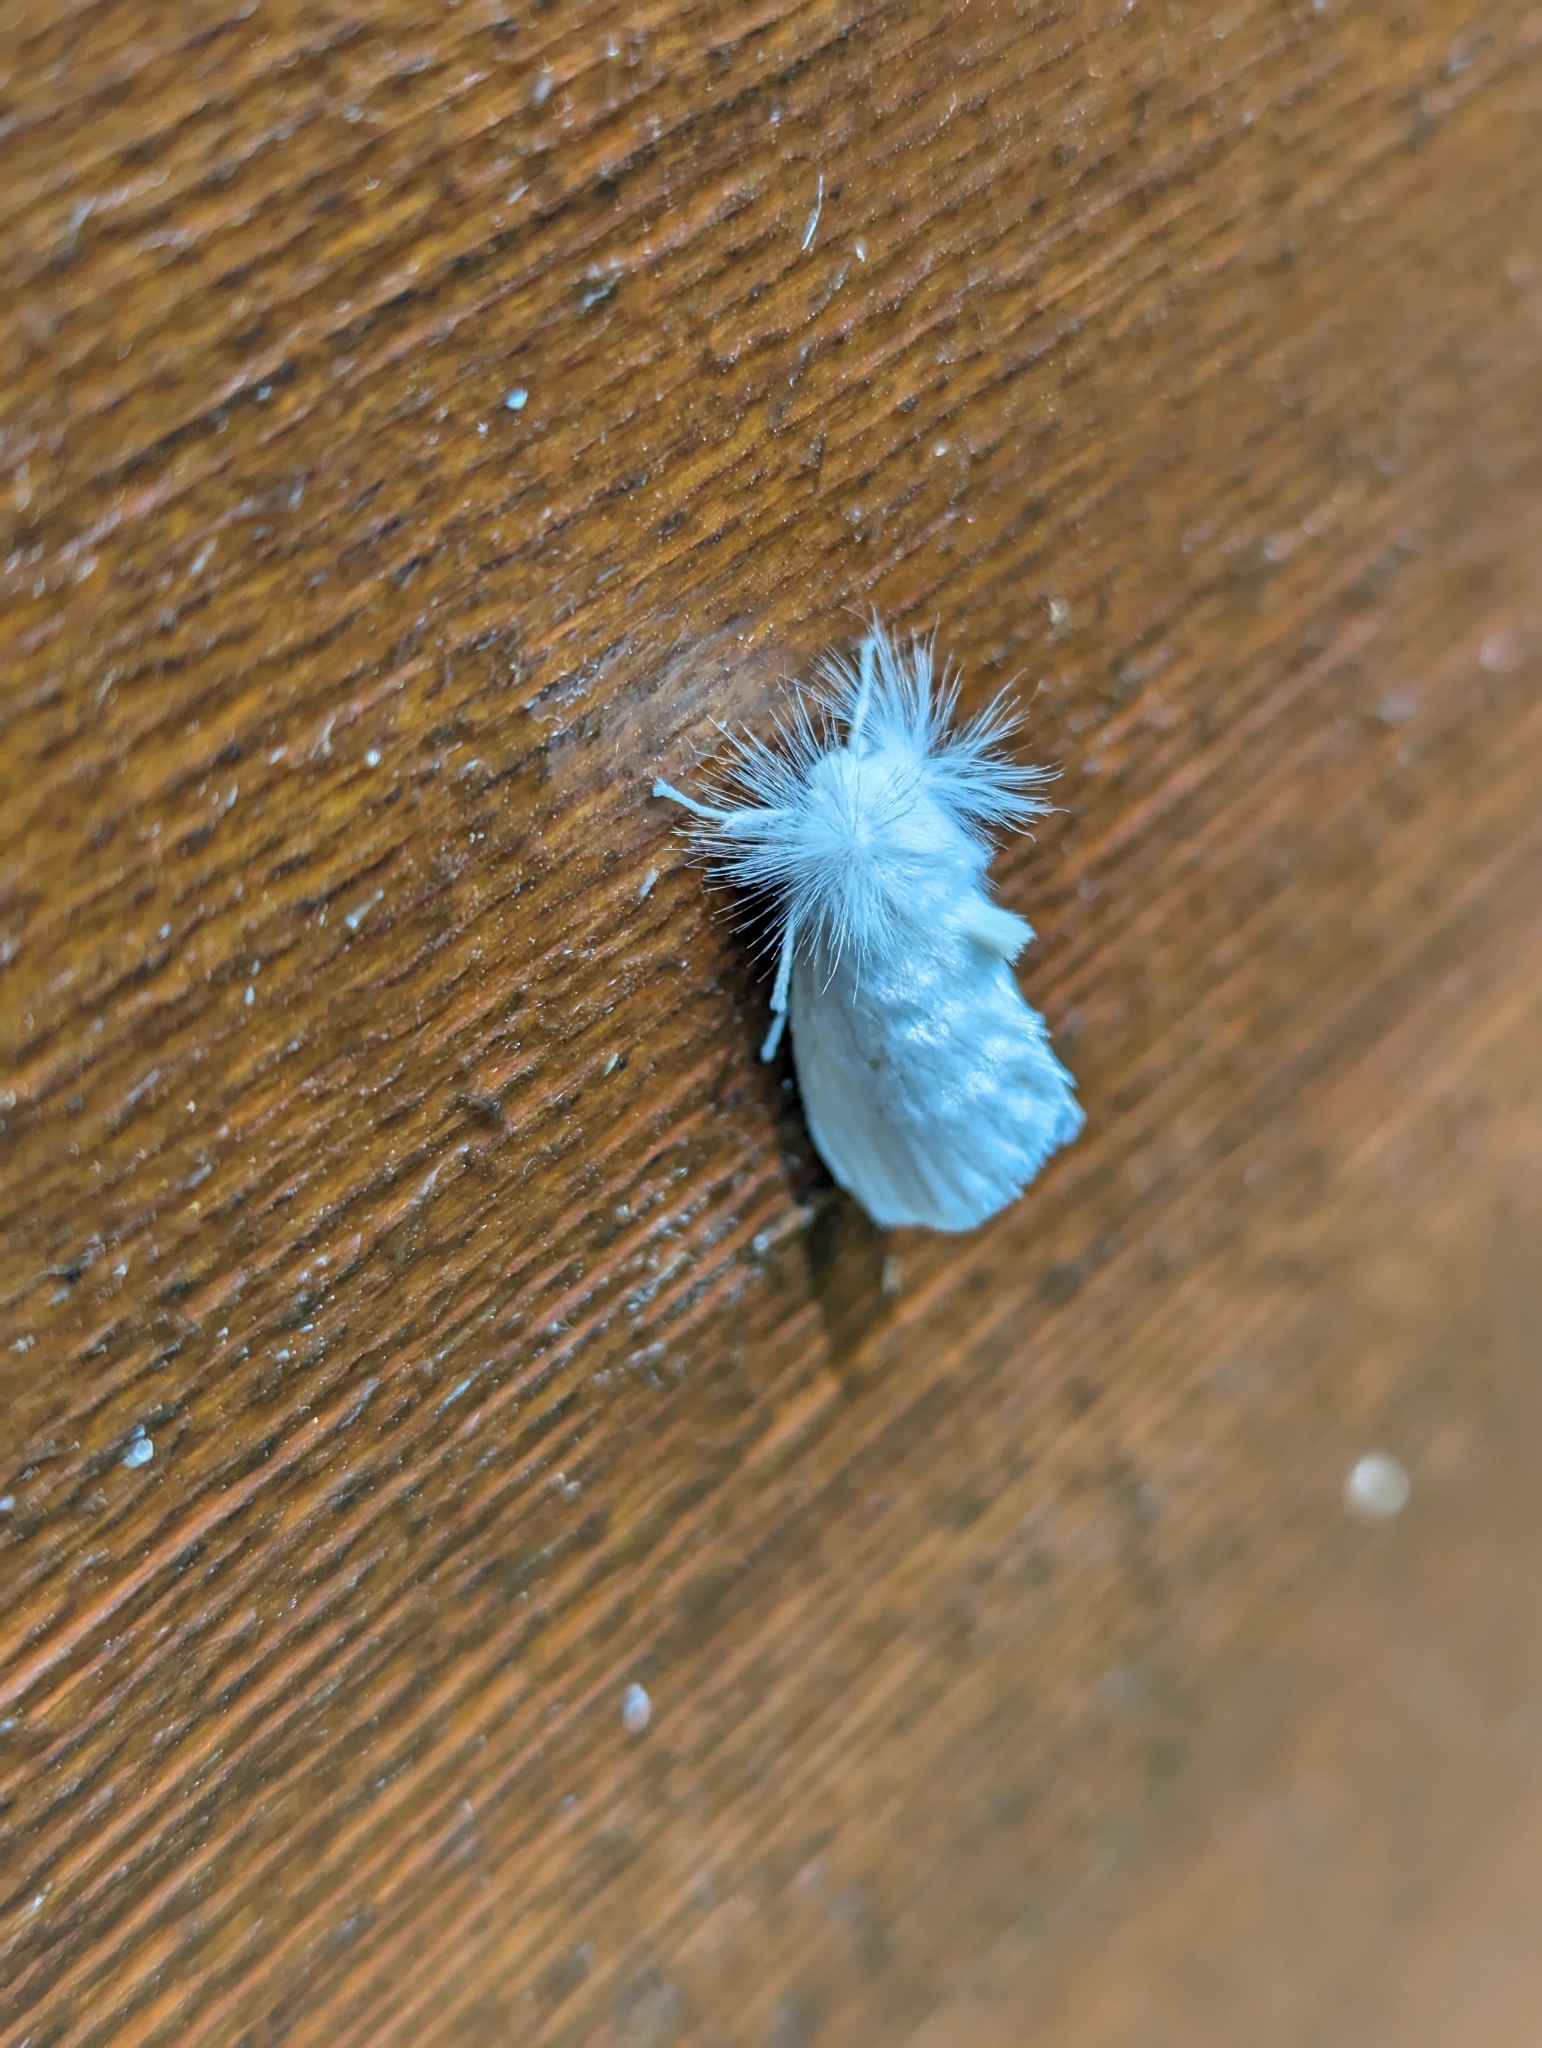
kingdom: Animalia
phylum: Arthropoda
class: Insecta
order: Lepidoptera
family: Megalopygidae
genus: Norape
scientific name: Norape cretata
